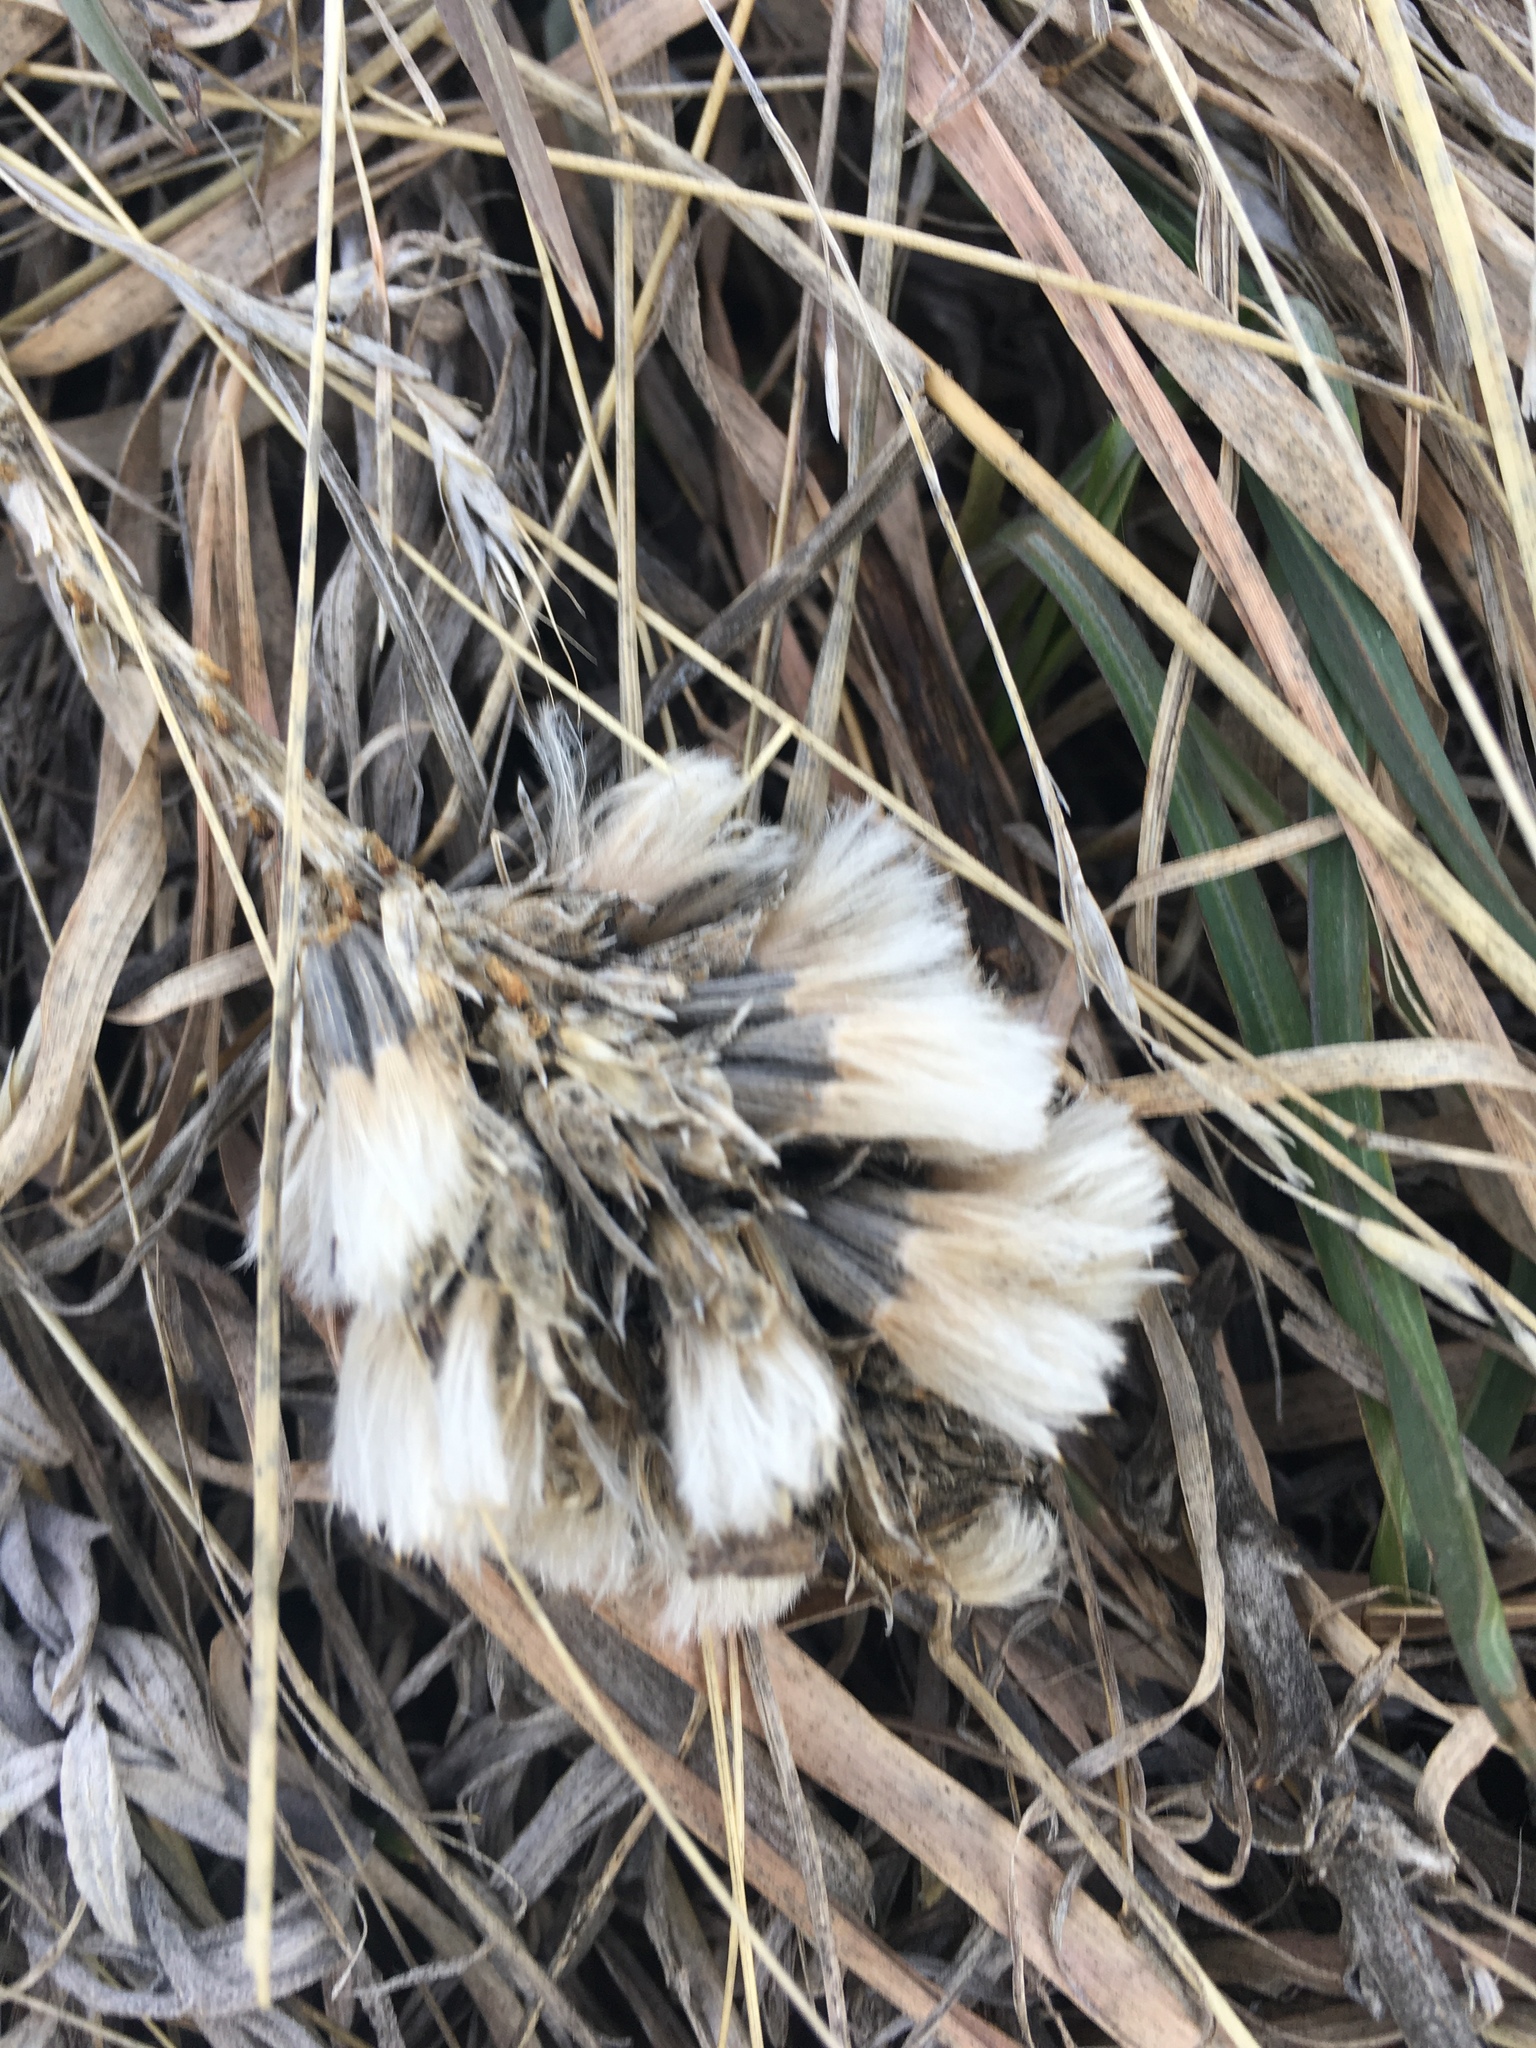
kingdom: Plantae
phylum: Tracheophyta
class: Magnoliopsida
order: Asterales
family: Asteraceae
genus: Liatris
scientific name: Liatris punctata
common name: Dotted gayfeather
